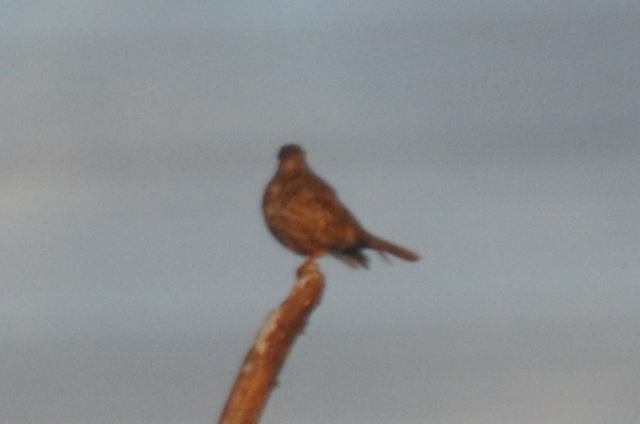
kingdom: Animalia
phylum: Chordata
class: Aves
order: Passeriformes
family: Turdidae
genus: Turdus
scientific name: Turdus viscivorus
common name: Mistle thrush
